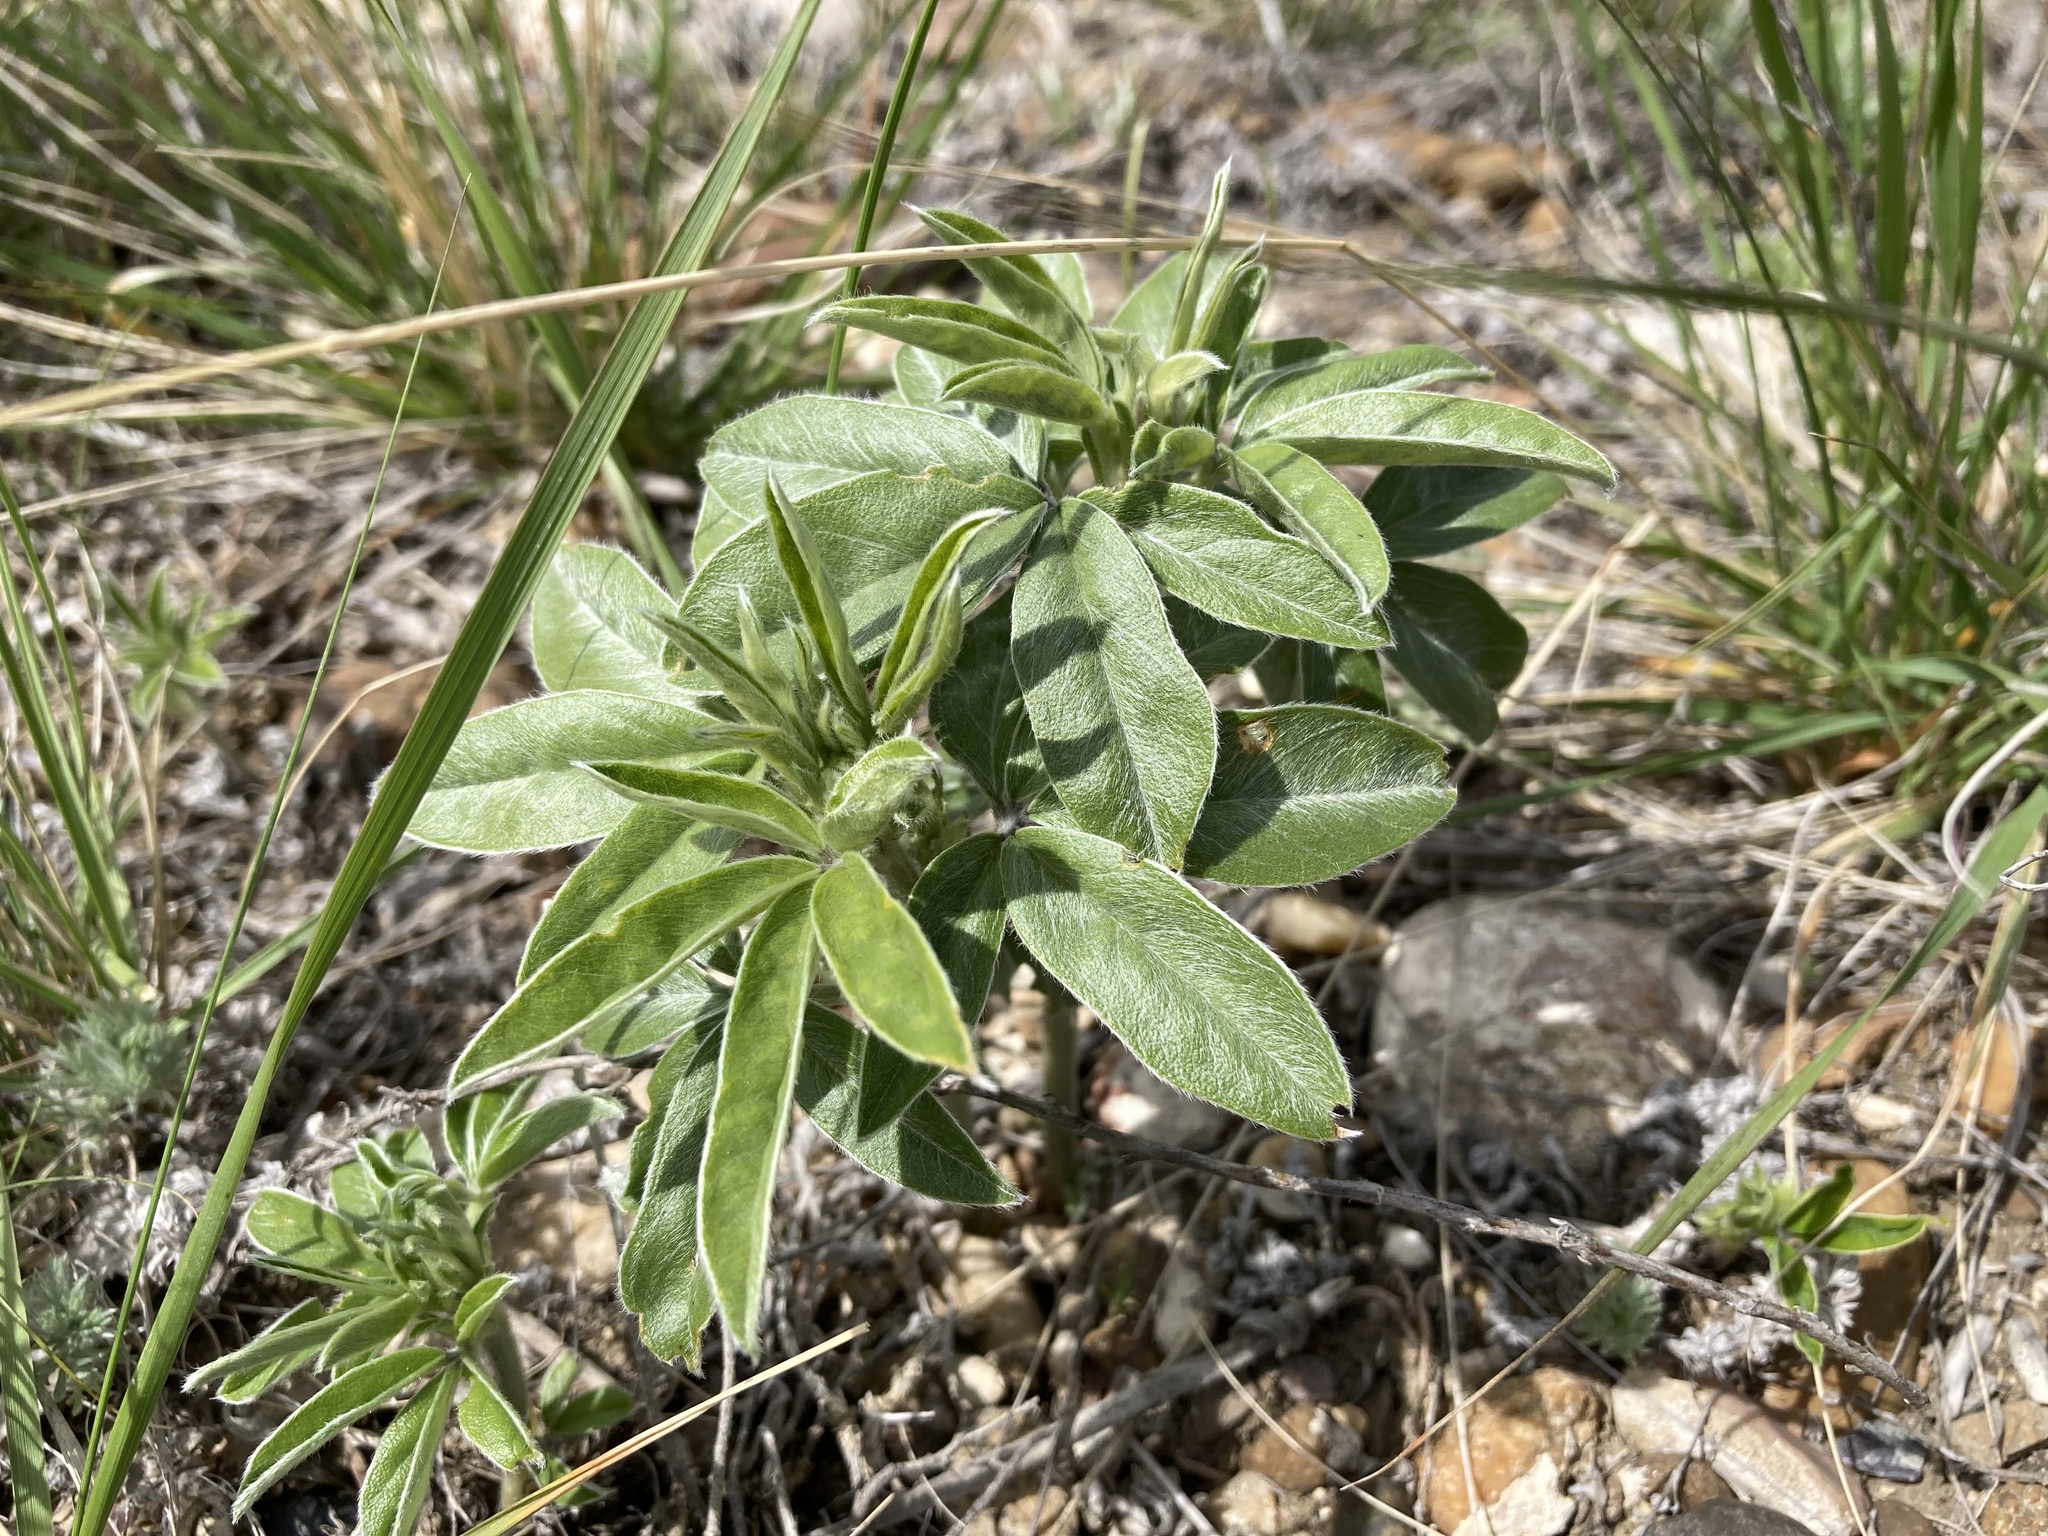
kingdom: Plantae
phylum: Tracheophyta
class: Magnoliopsida
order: Fabales
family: Fabaceae
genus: Pediomelum
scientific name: Pediomelum esculentum
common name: Indian-turnip
